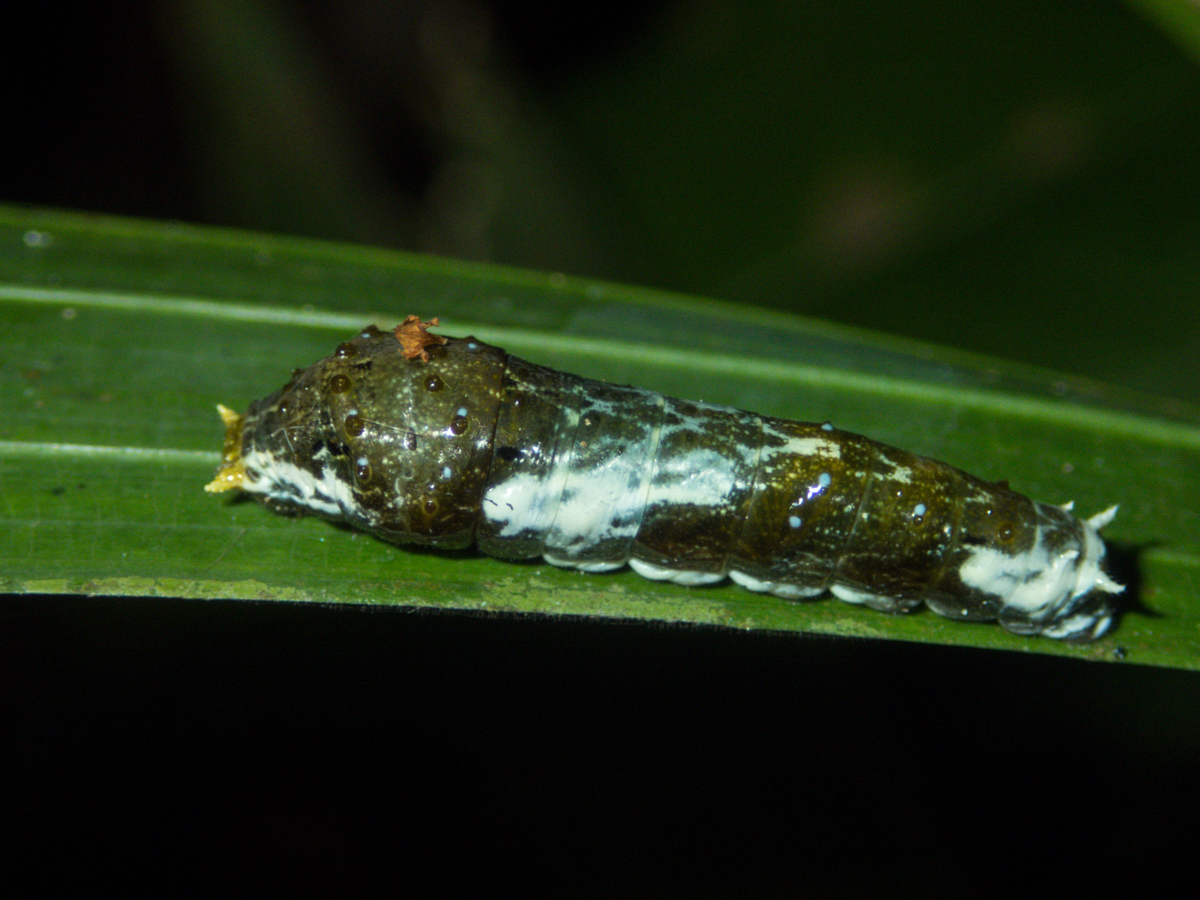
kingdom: Animalia
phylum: Arthropoda
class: Insecta
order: Lepidoptera
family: Papilionidae
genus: Papilio
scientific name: Papilio polytes
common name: Common mormon
